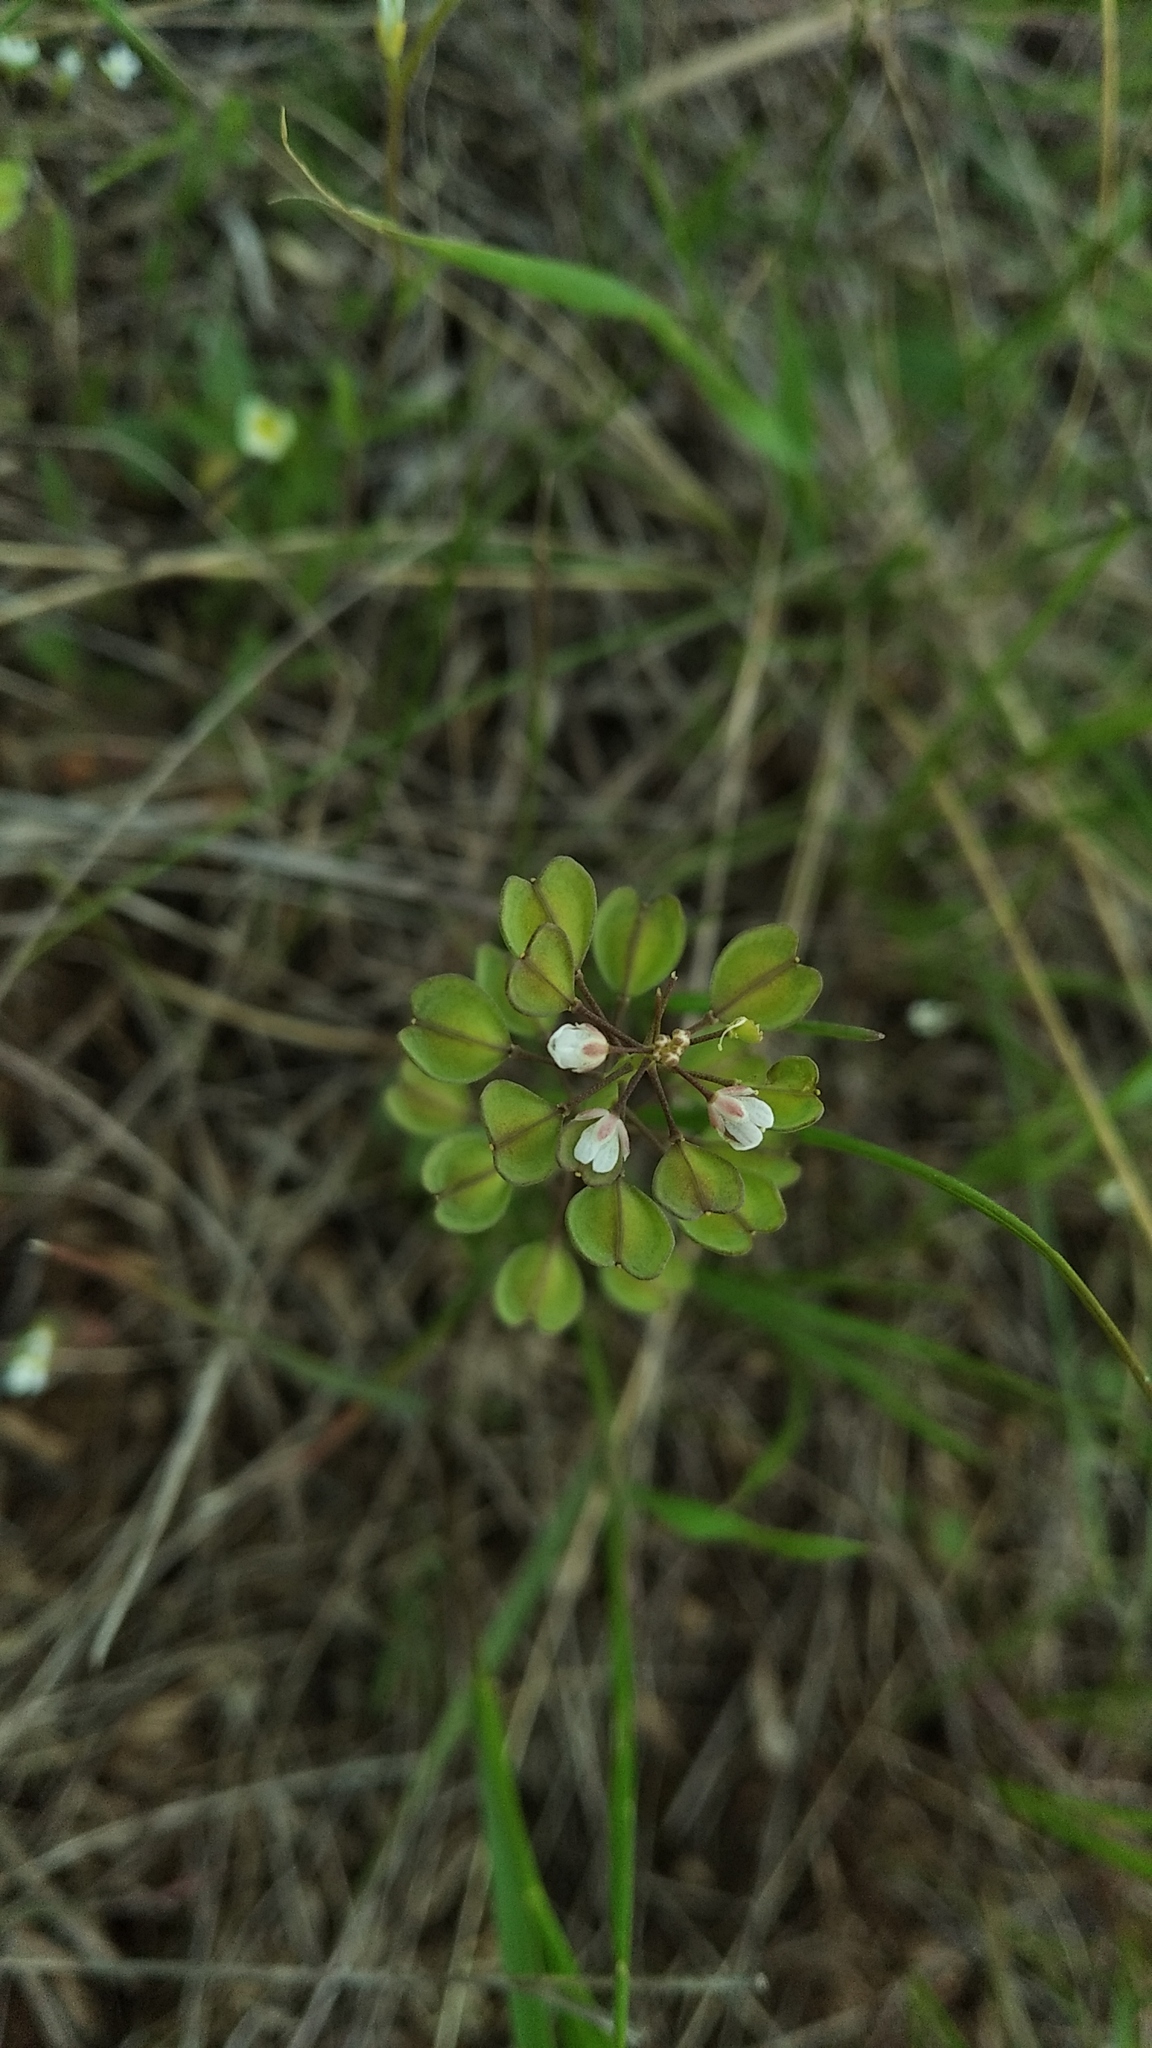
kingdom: Plantae
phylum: Tracheophyta
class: Magnoliopsida
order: Brassicales
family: Brassicaceae
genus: Noccaea
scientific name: Noccaea perfoliata
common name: Perfoliate pennycress
